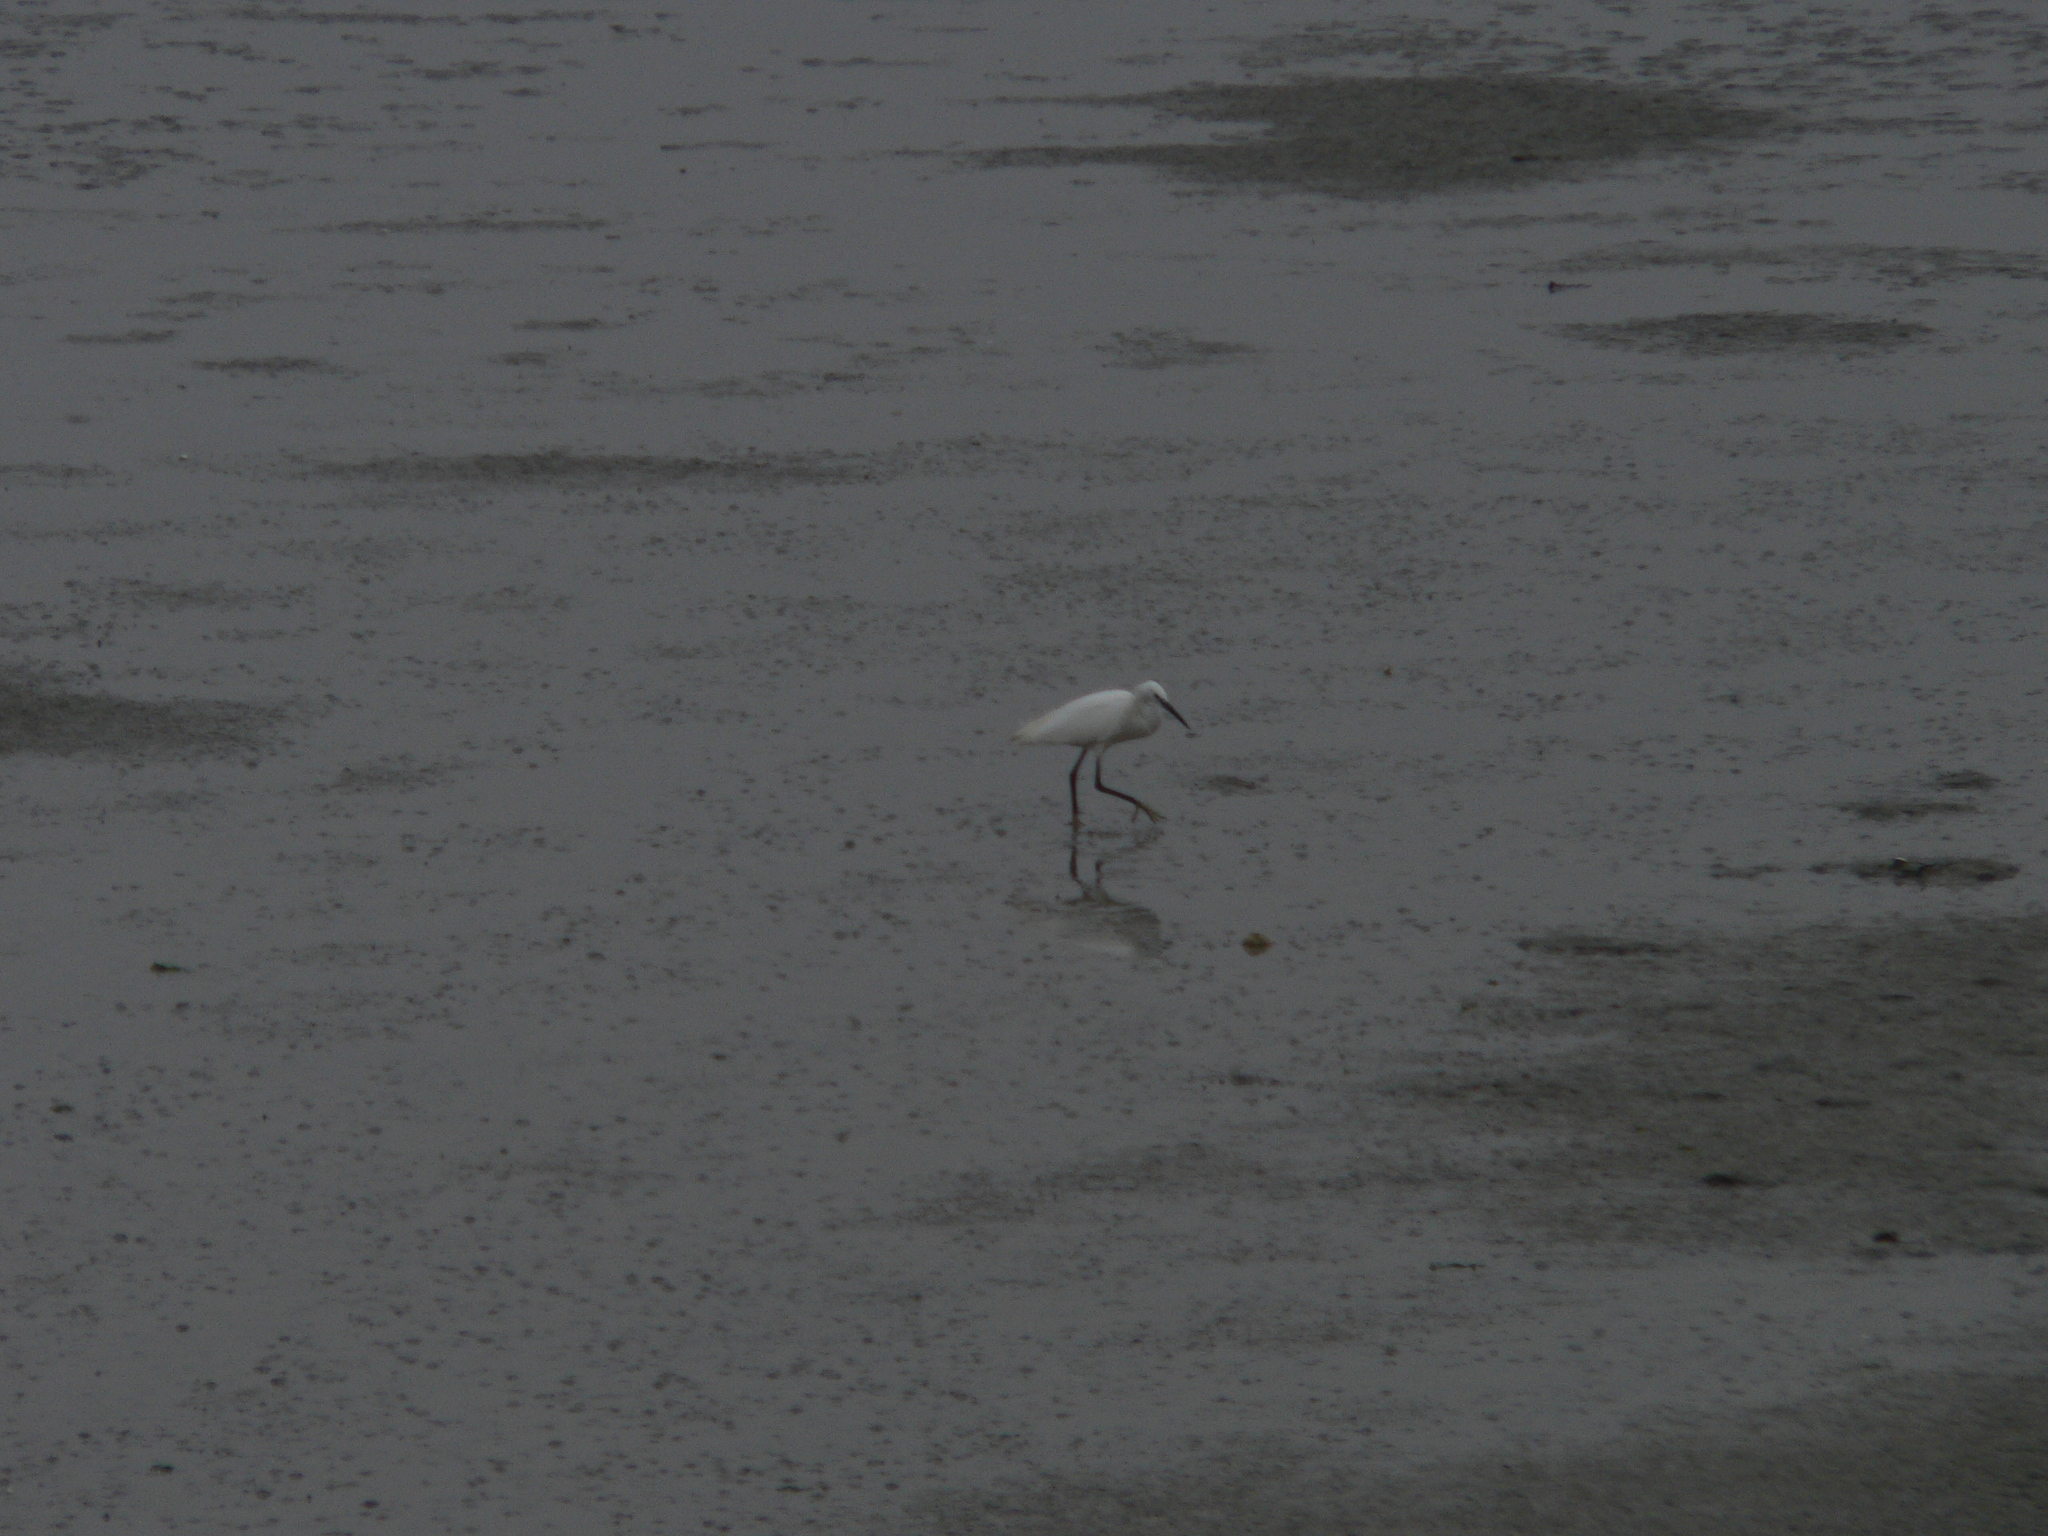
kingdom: Animalia
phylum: Chordata
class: Aves
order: Pelecaniformes
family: Ardeidae
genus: Egretta
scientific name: Egretta garzetta
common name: Little egret
